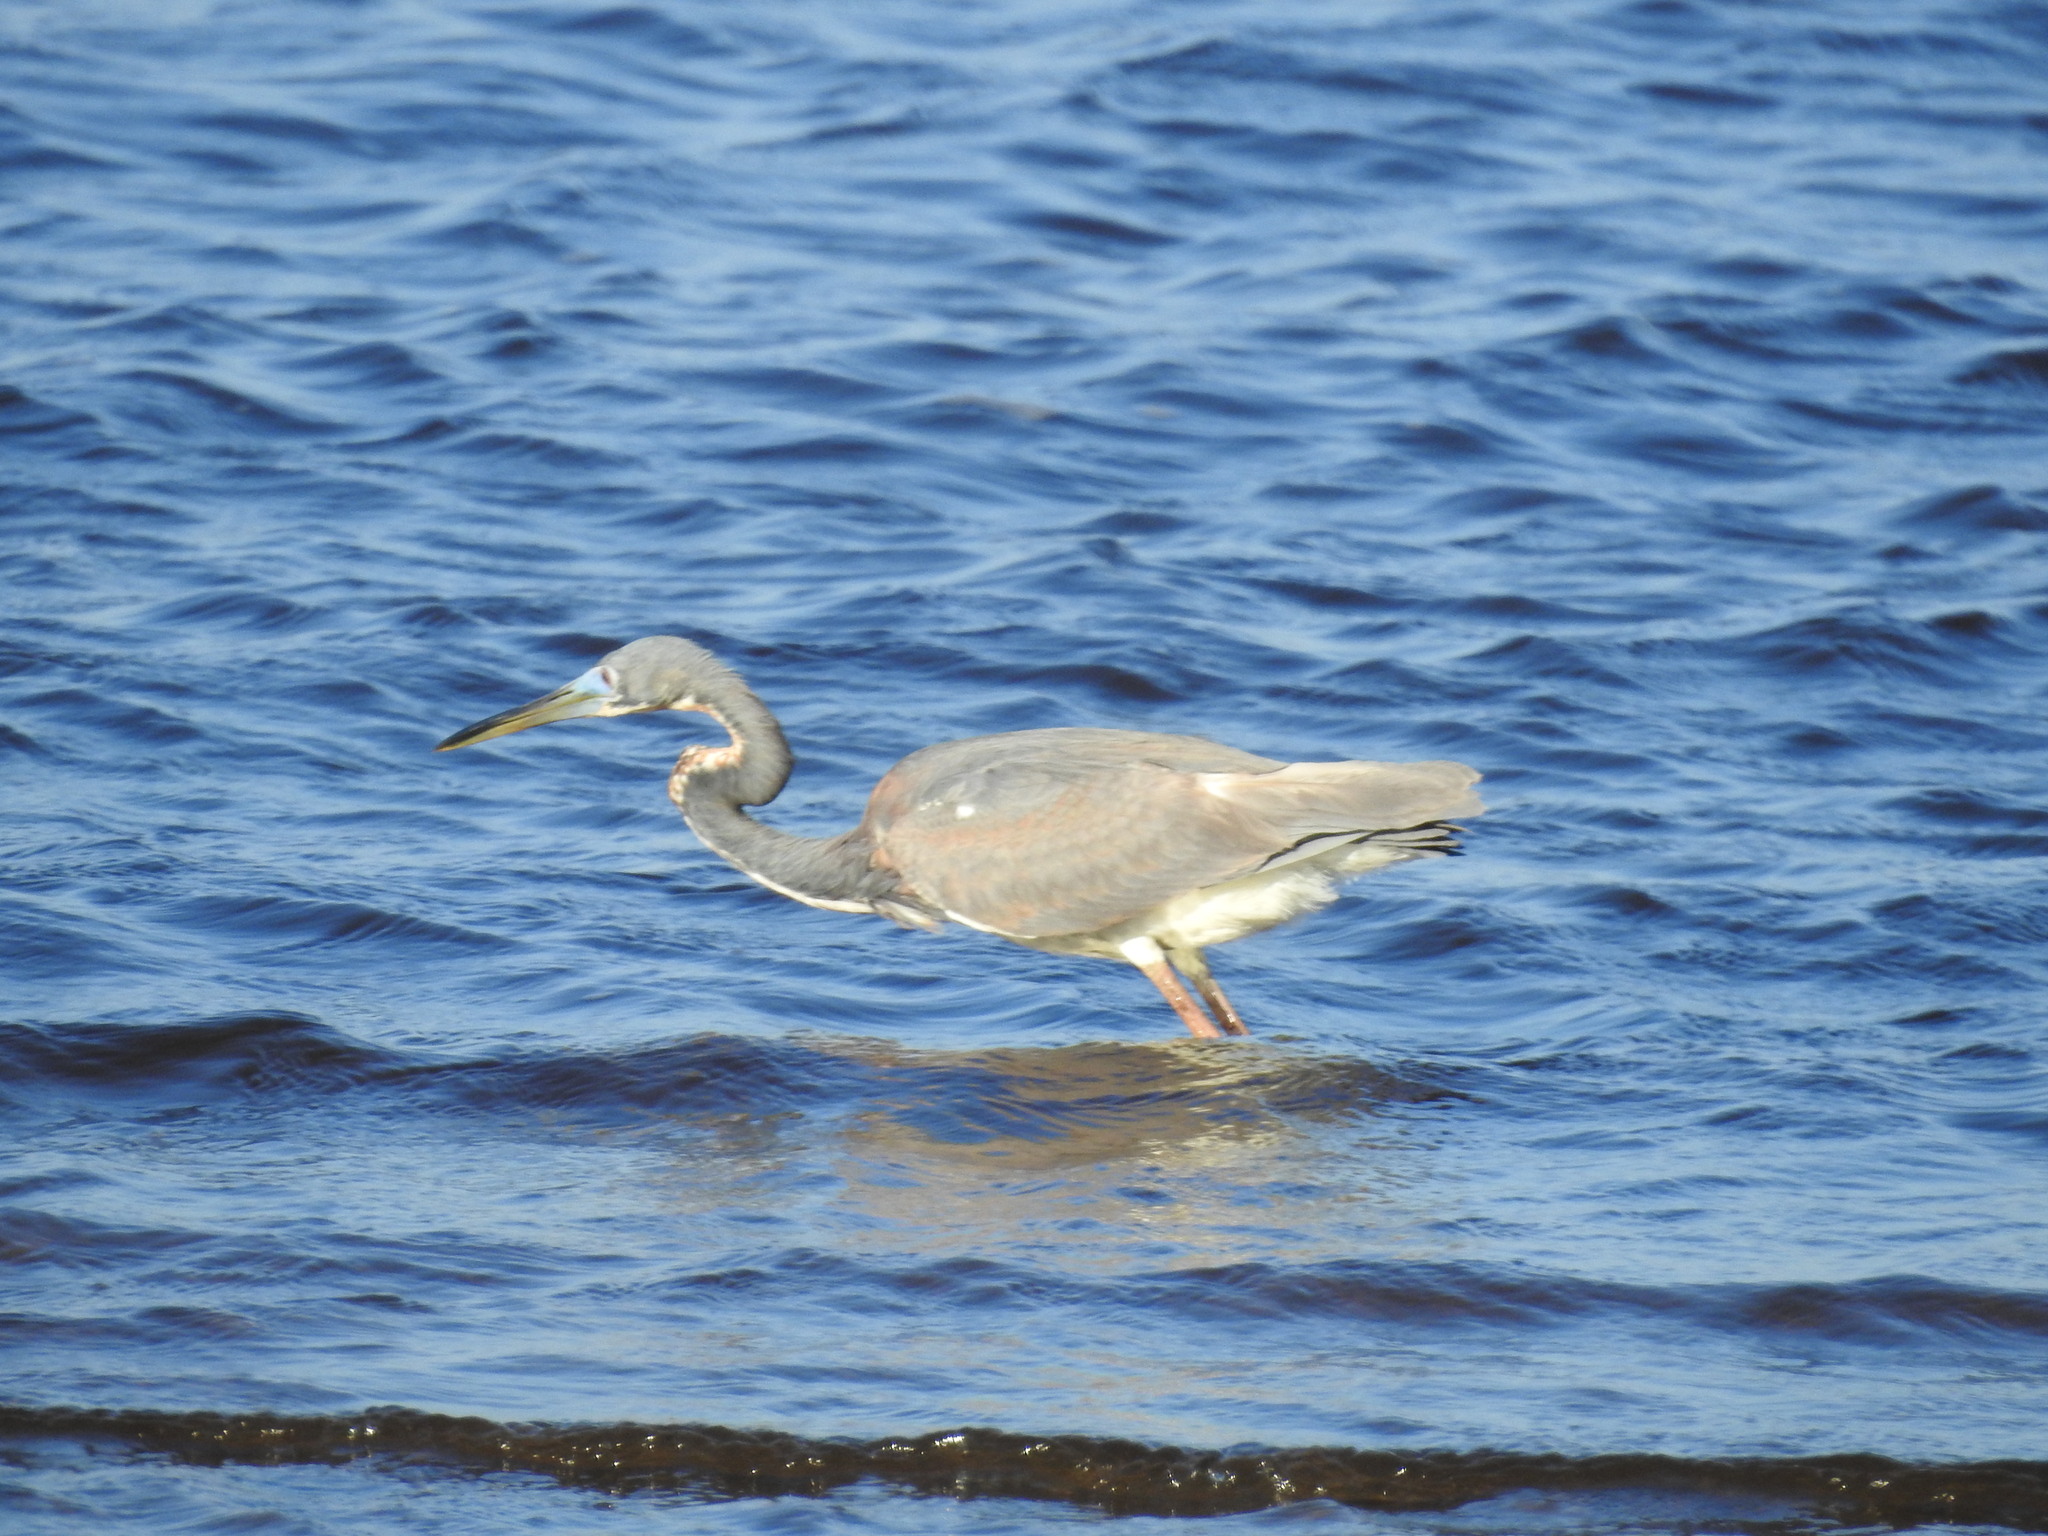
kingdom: Animalia
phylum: Chordata
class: Aves
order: Pelecaniformes
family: Ardeidae
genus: Egretta
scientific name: Egretta tricolor
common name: Tricolored heron
